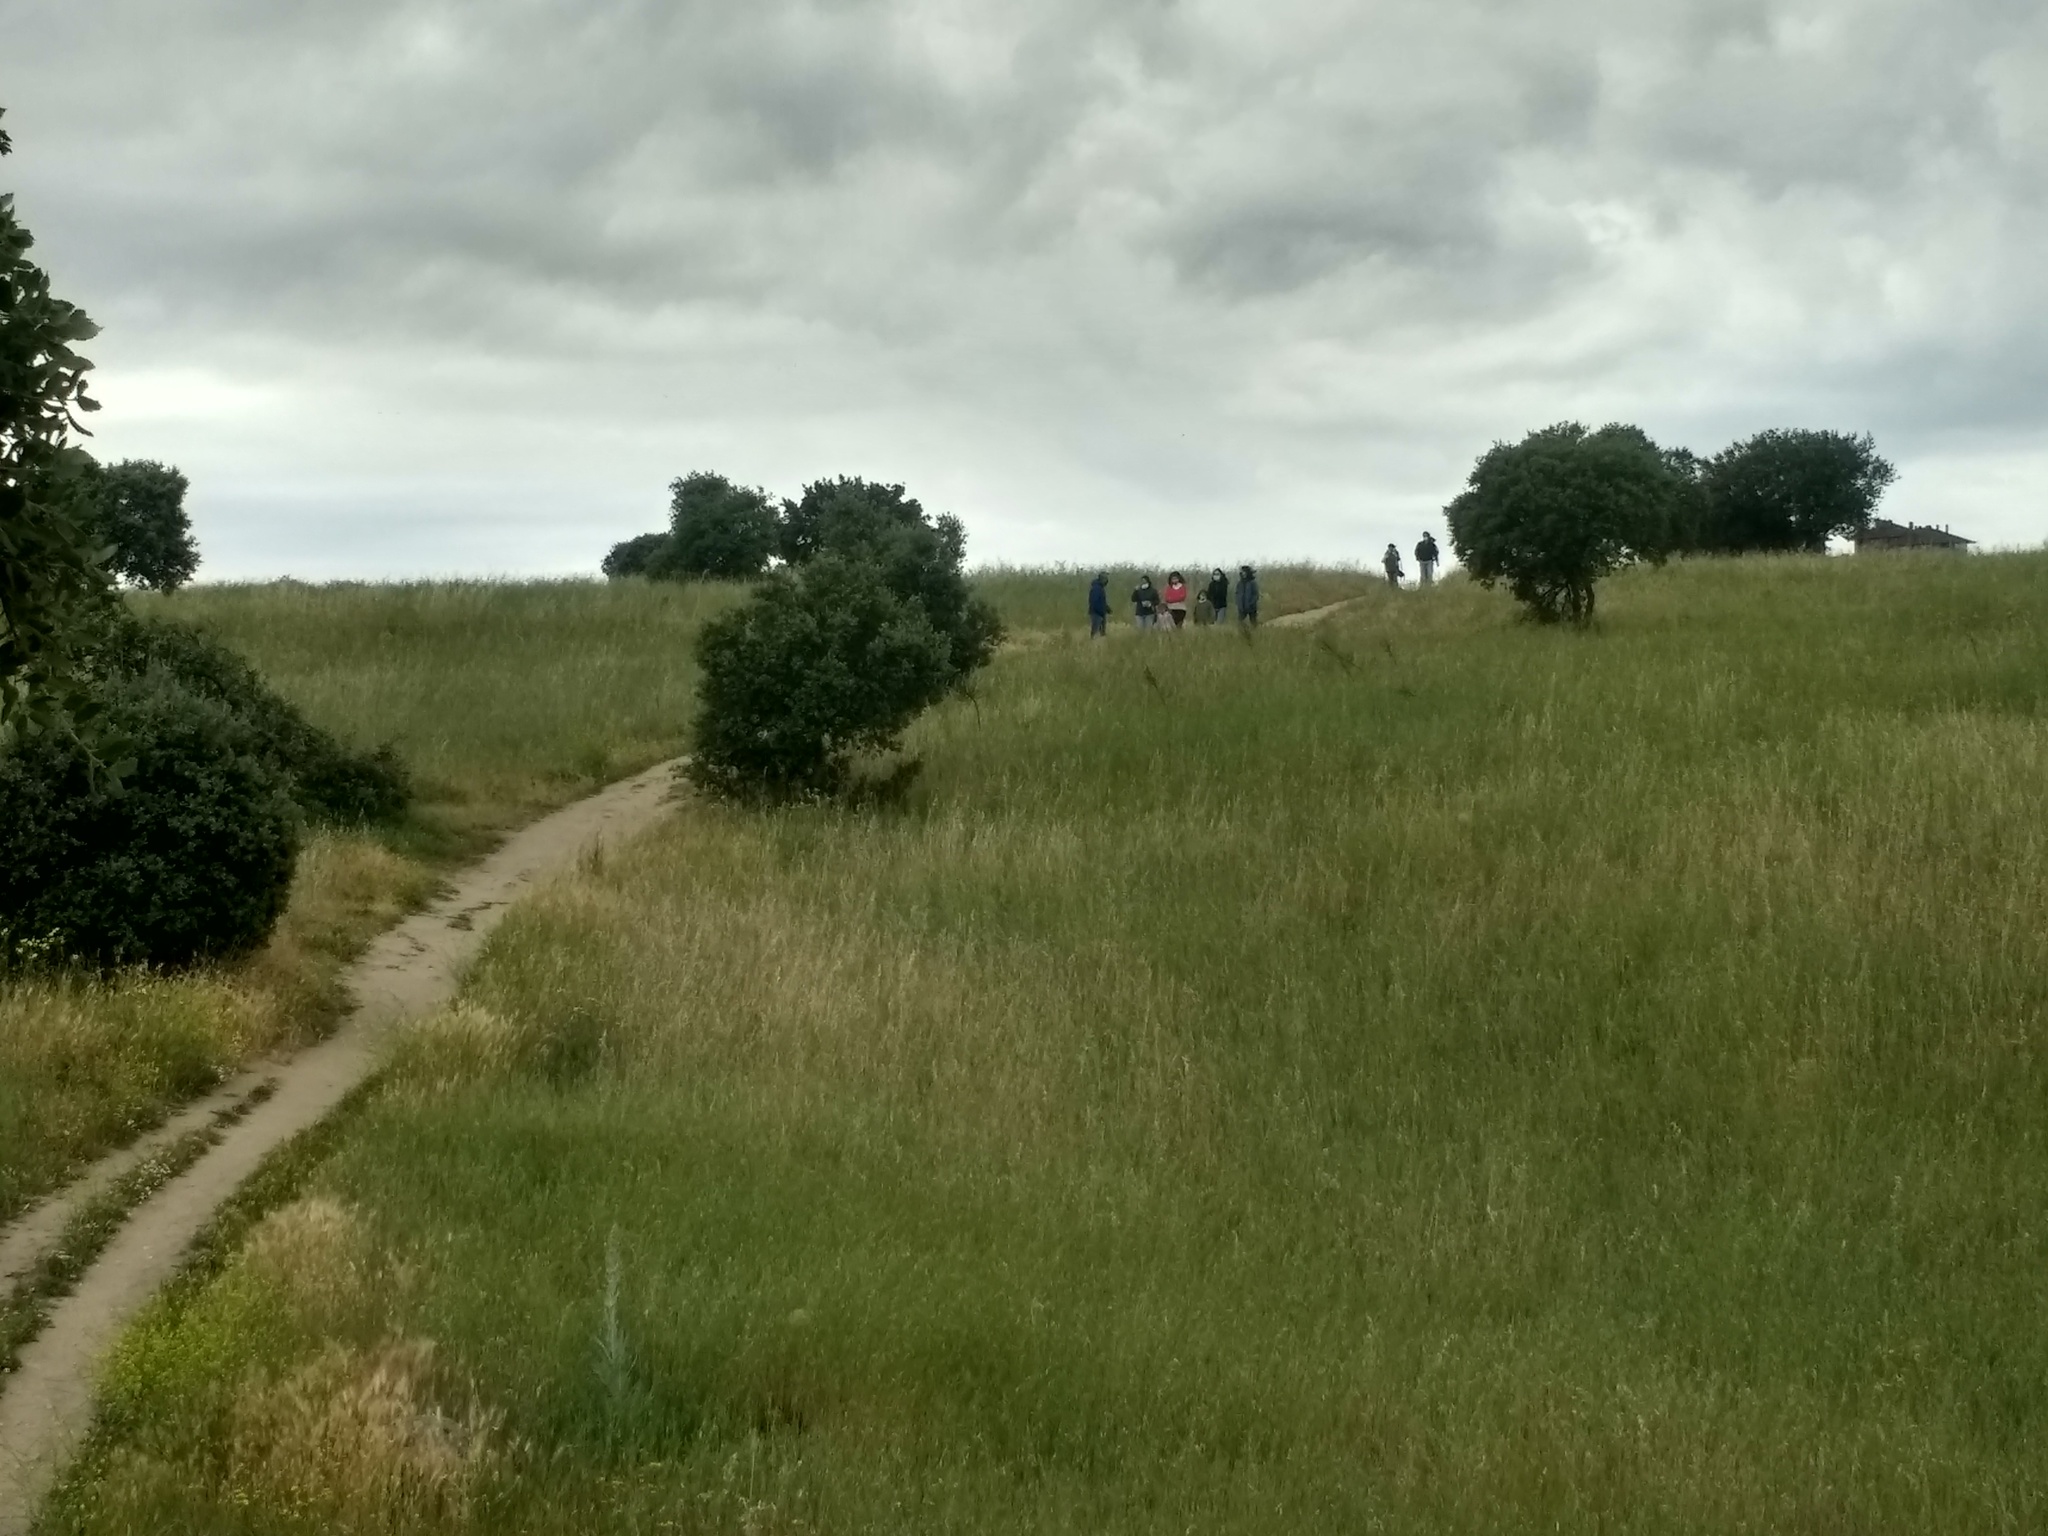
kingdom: Plantae
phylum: Tracheophyta
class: Magnoliopsida
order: Fagales
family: Fagaceae
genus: Quercus
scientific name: Quercus rotundifolia
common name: Holm oak
